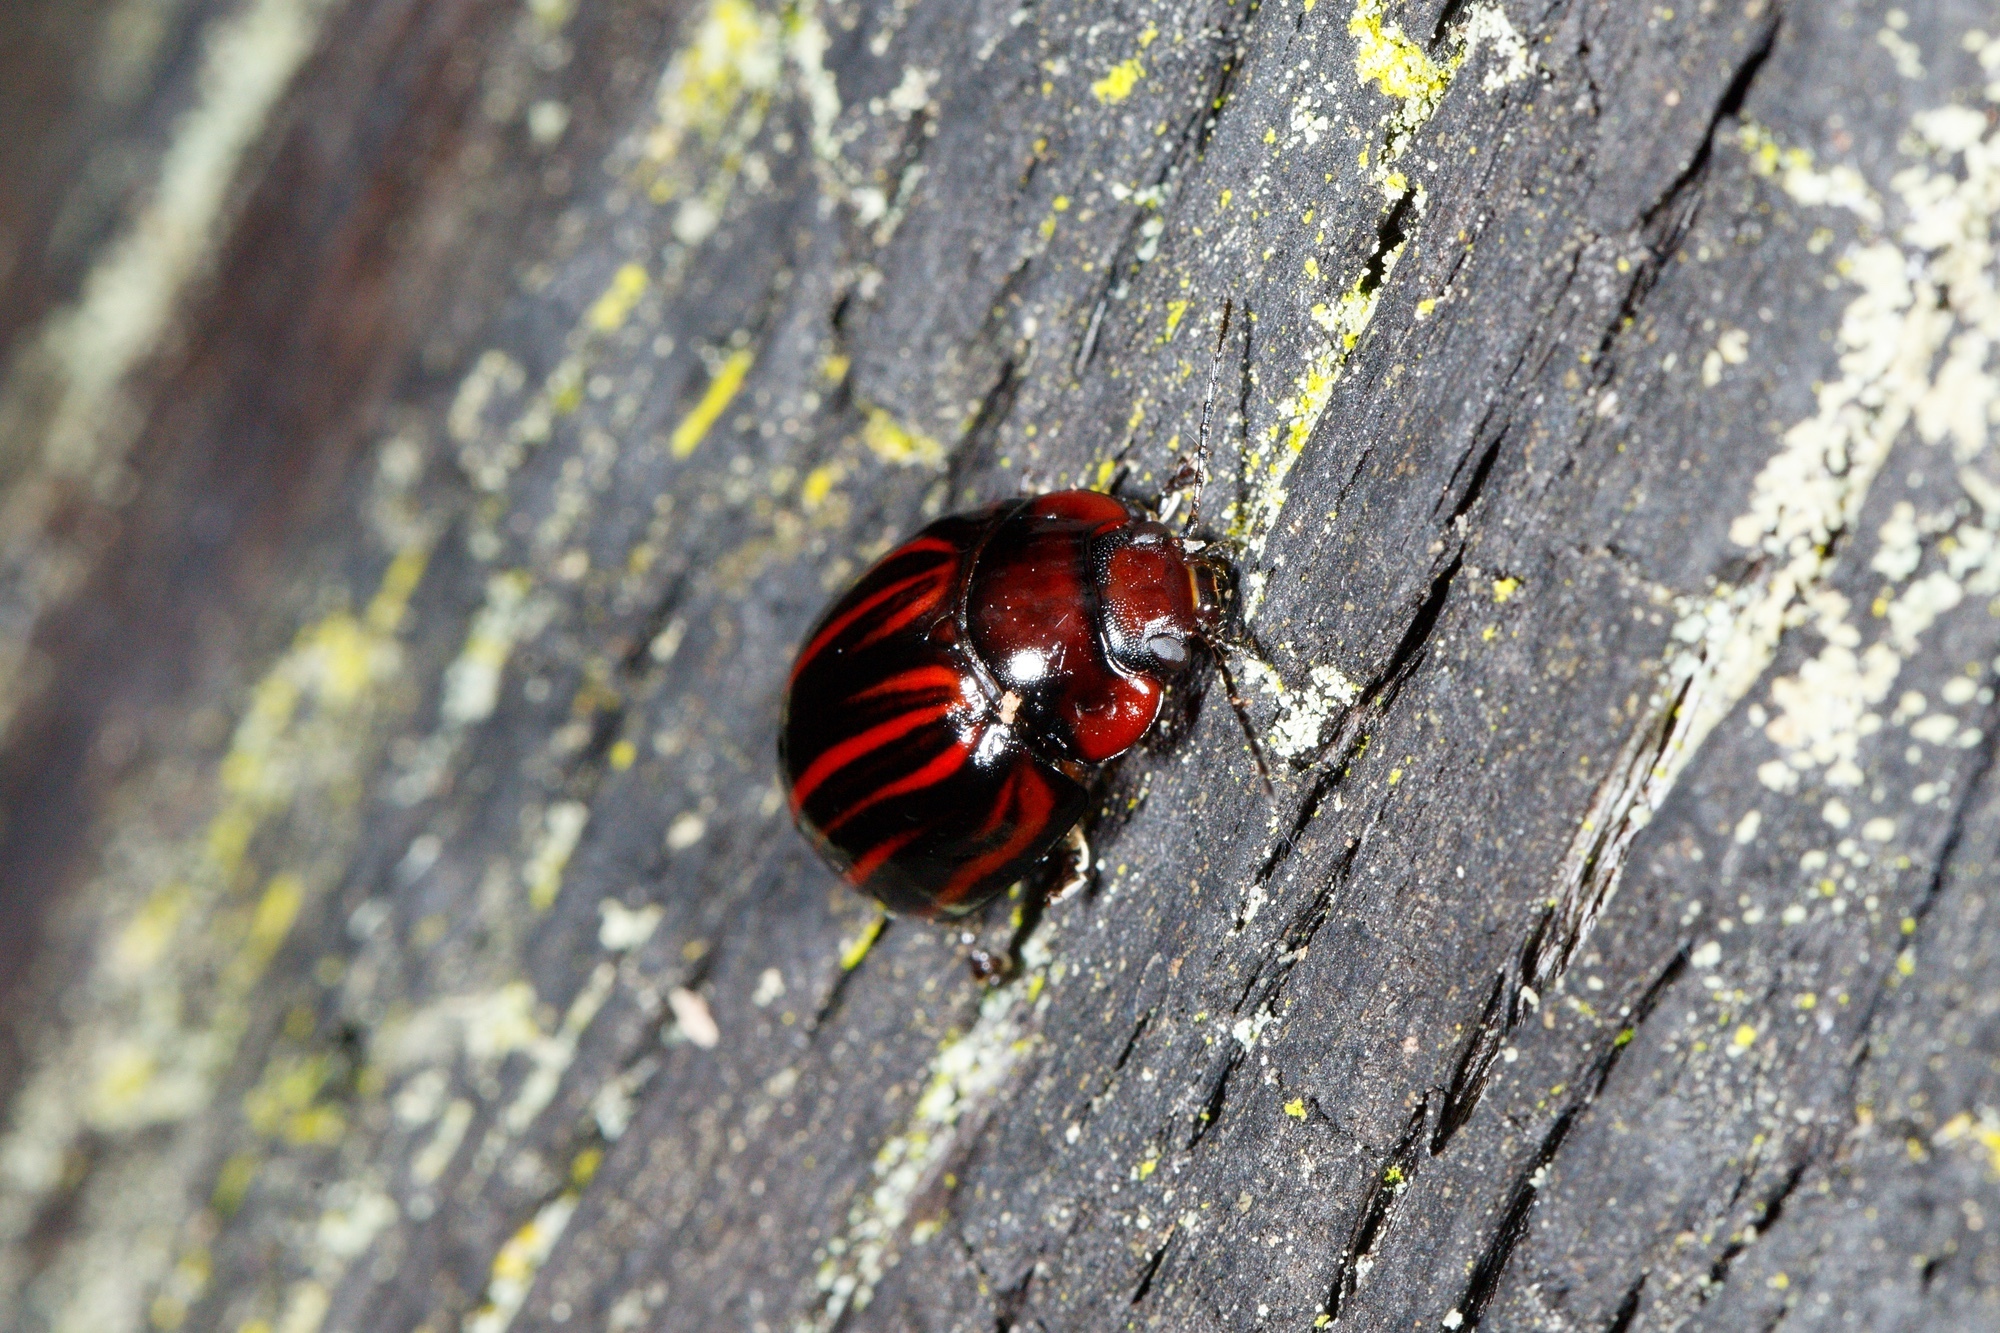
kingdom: Animalia
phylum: Arthropoda
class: Insecta
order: Coleoptera
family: Chrysomelidae
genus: Paropsisterna
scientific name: Paropsisterna
